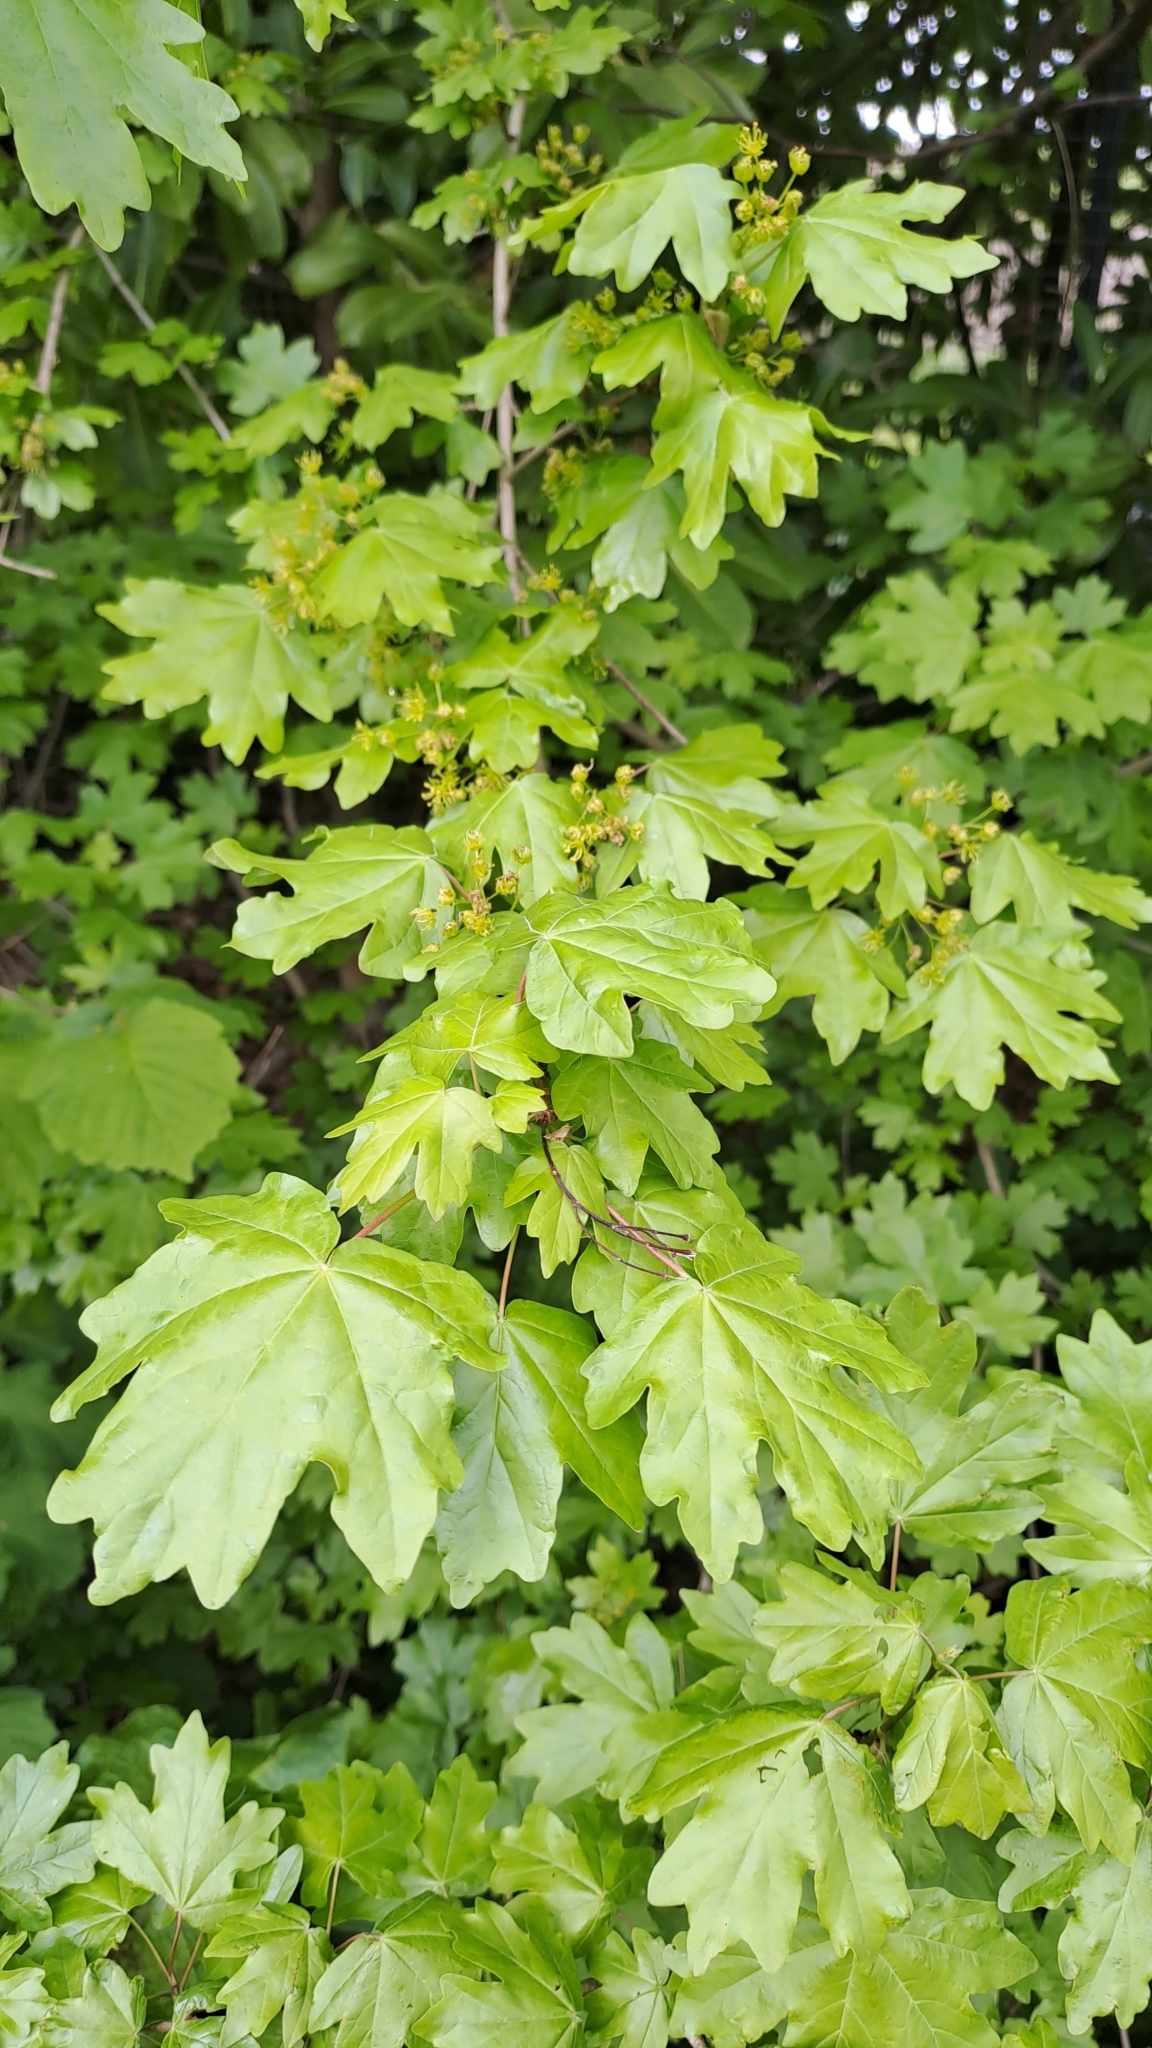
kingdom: Plantae
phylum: Tracheophyta
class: Magnoliopsida
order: Sapindales
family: Sapindaceae
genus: Acer
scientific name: Acer campestre
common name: Field maple
